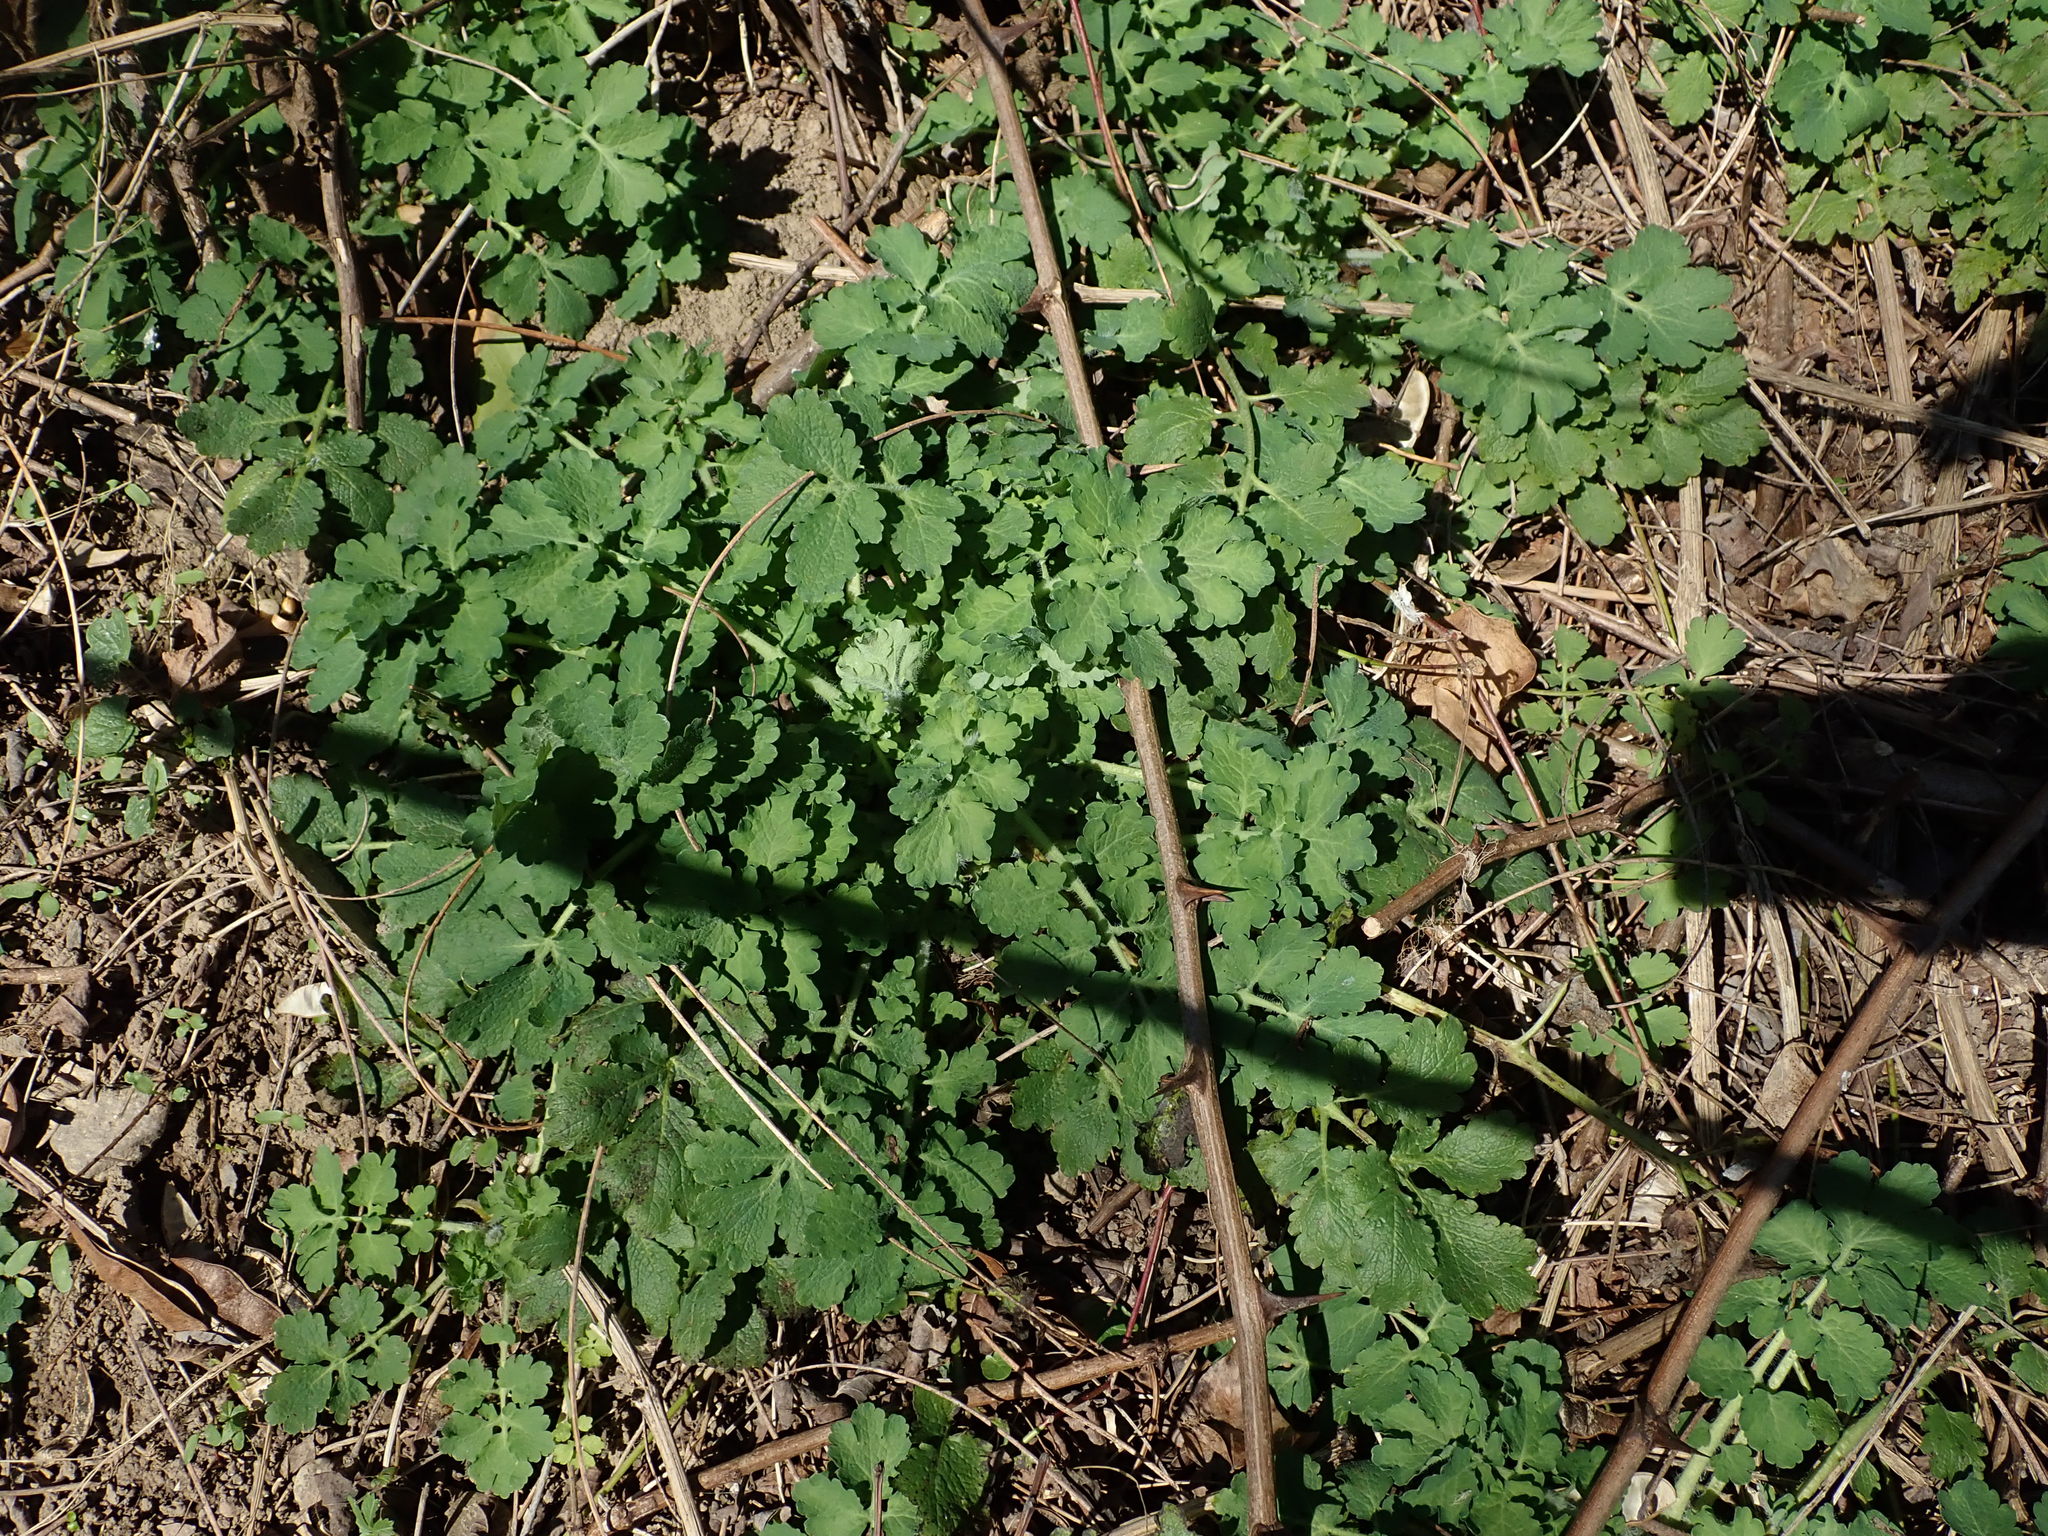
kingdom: Plantae
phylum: Tracheophyta
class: Magnoliopsida
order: Ranunculales
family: Papaveraceae
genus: Chelidonium
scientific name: Chelidonium majus
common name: Greater celandine
